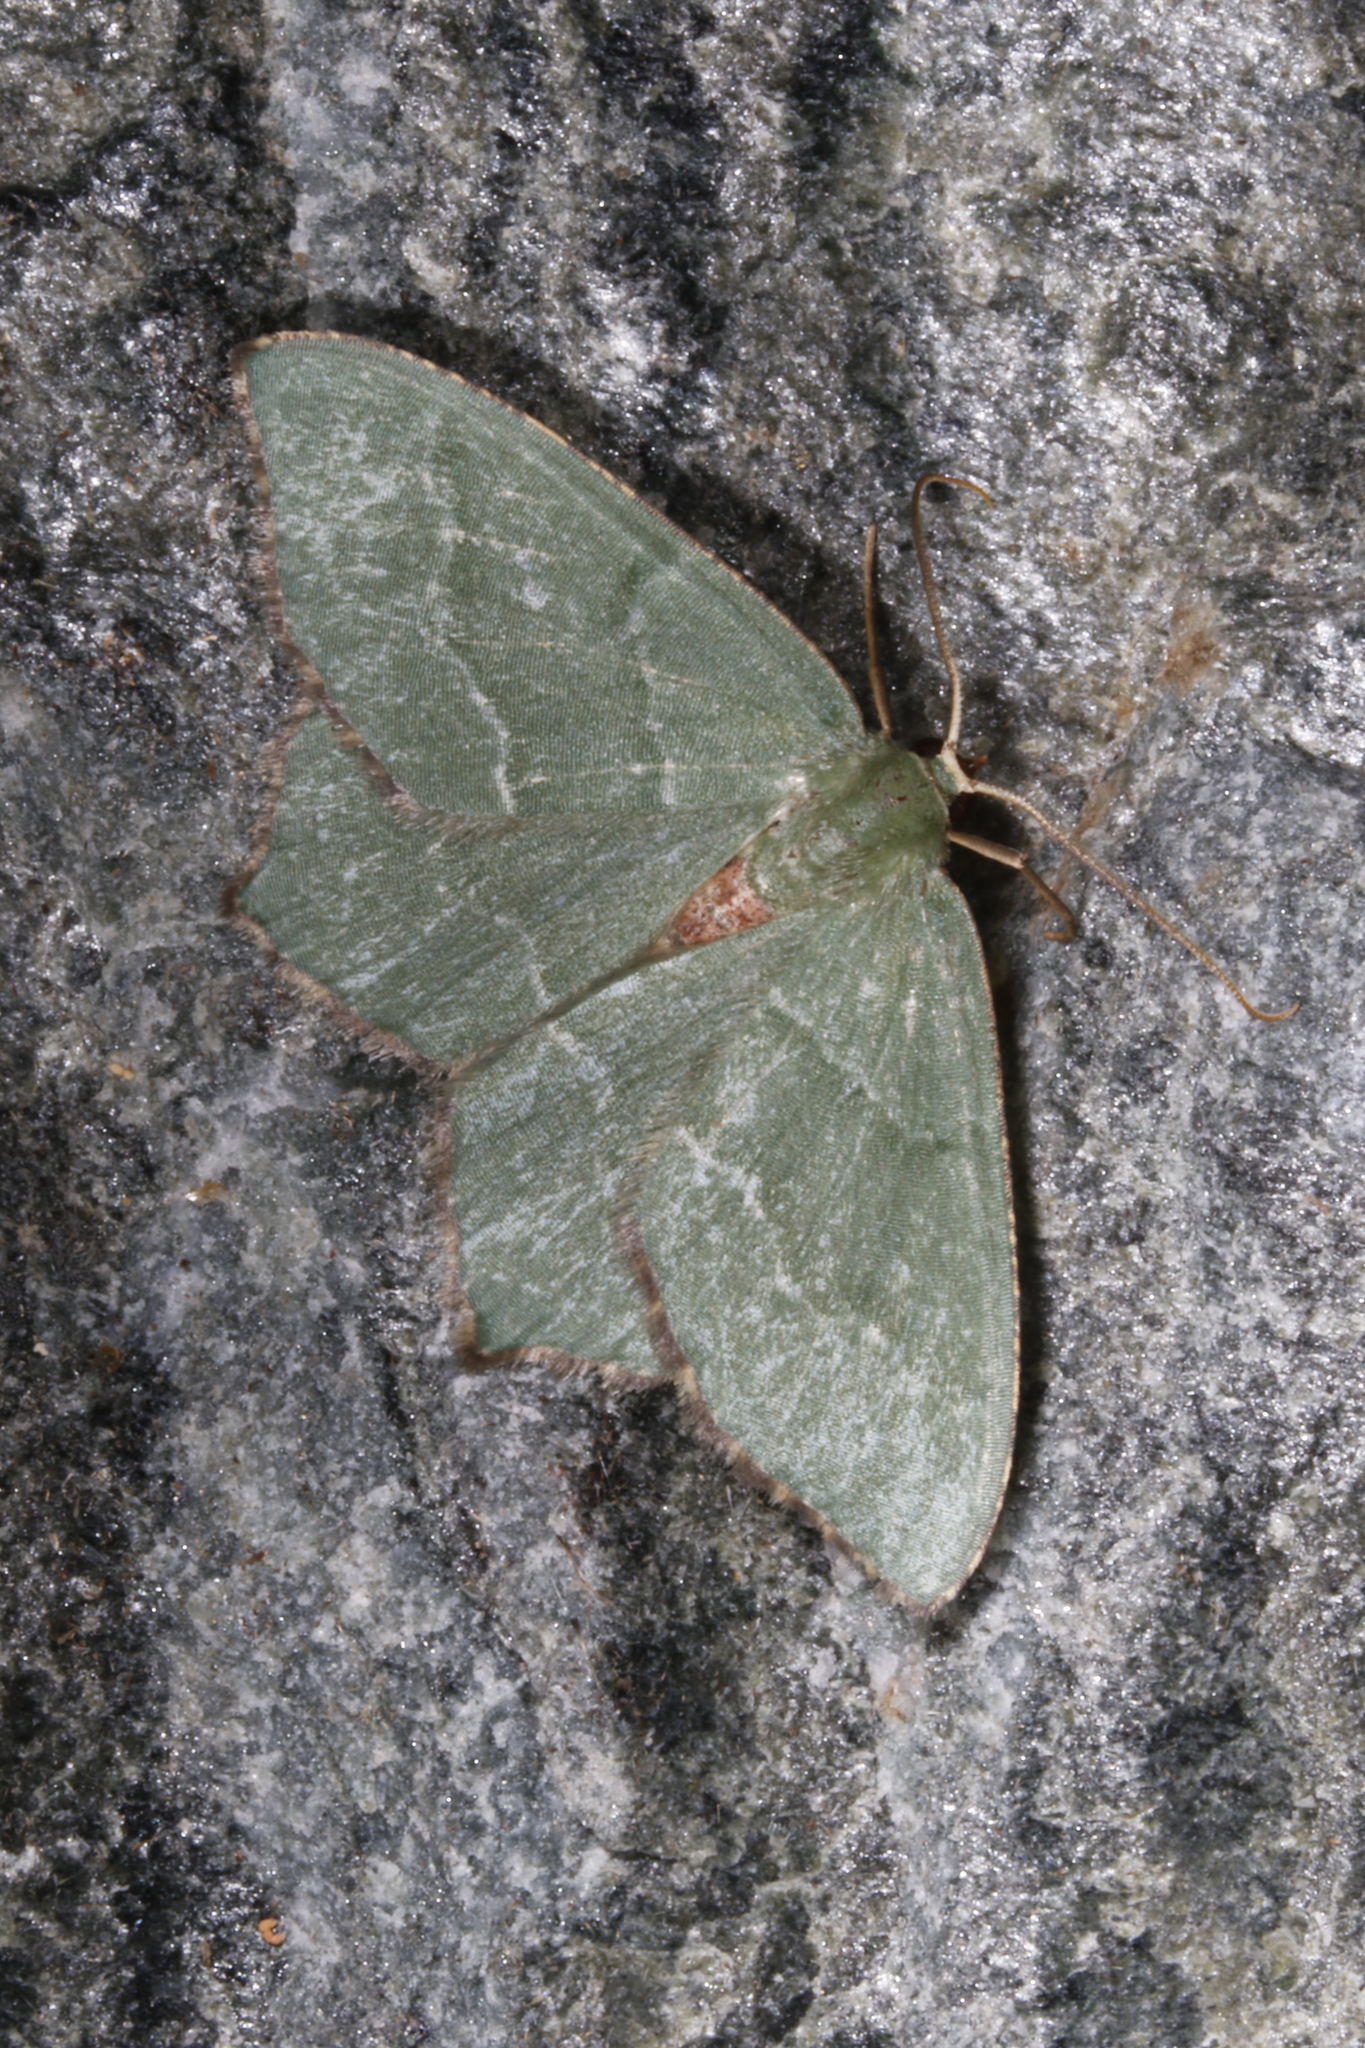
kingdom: Animalia
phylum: Arthropoda
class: Insecta
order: Lepidoptera
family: Geometridae
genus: Hemithea
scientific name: Hemithea aestivaria
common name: Common emerald
